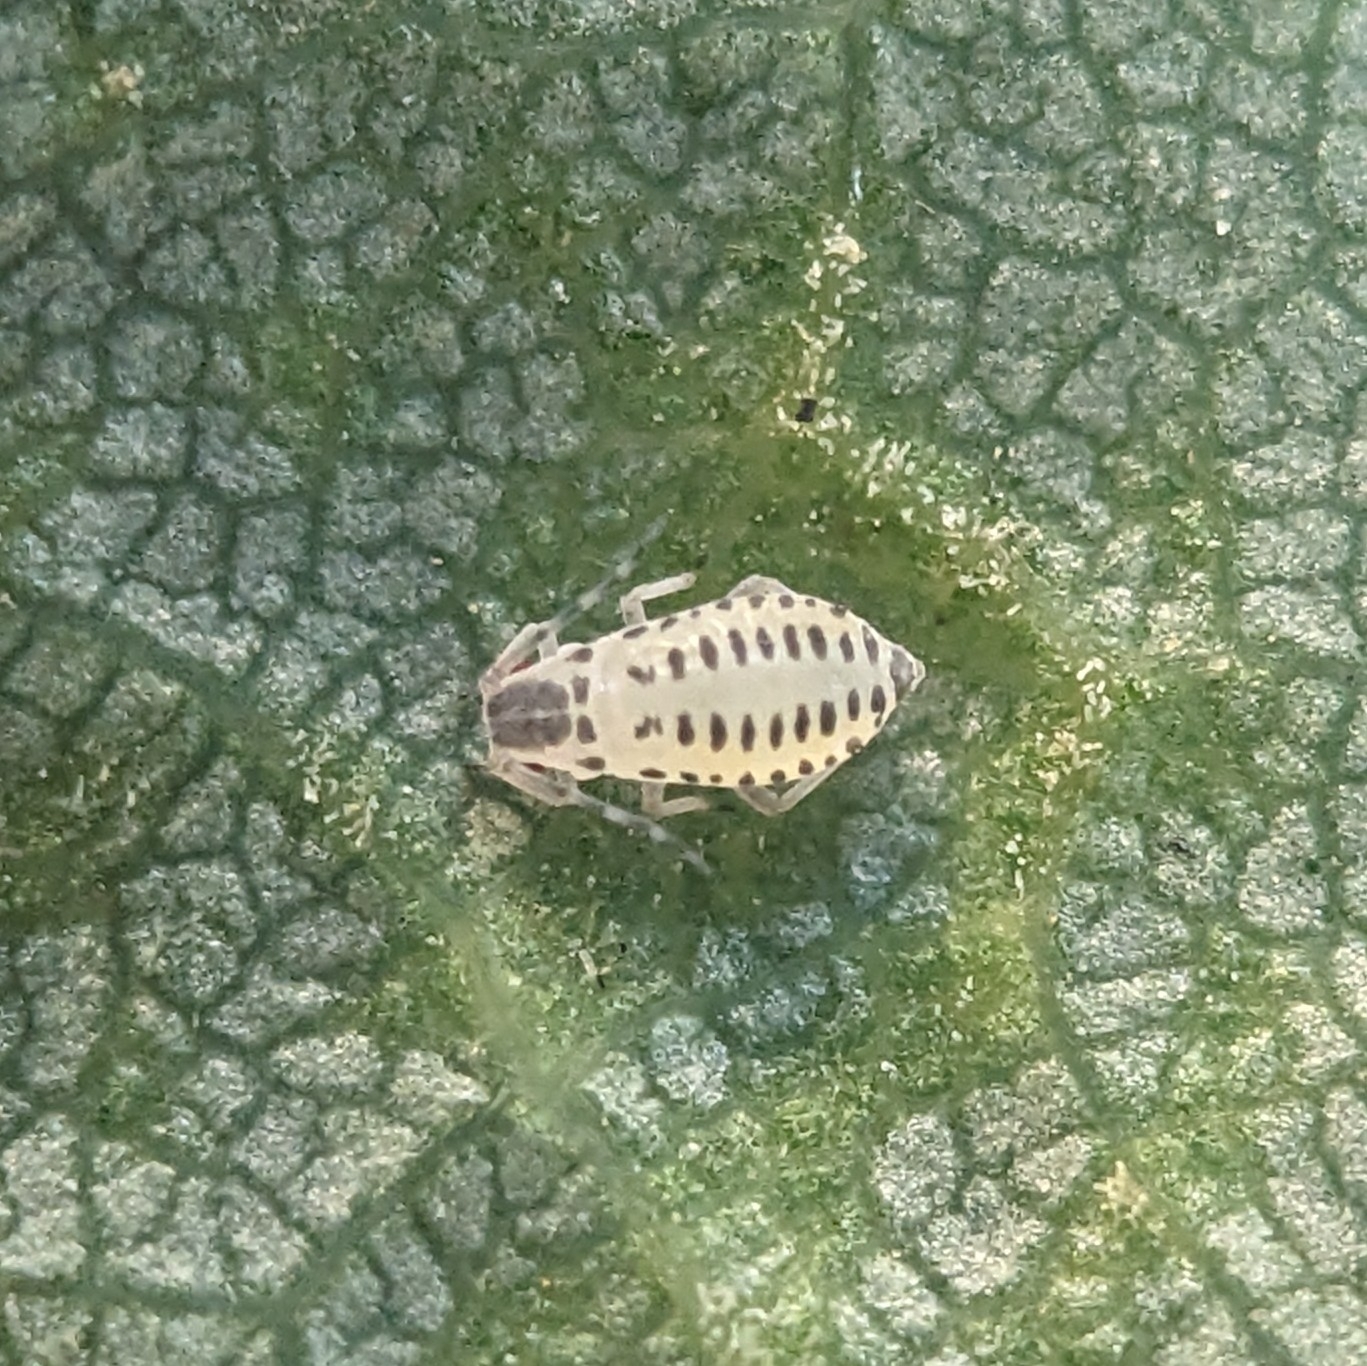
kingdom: Animalia
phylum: Arthropoda
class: Insecta
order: Hemiptera
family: Aphididae
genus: Eucallipterus
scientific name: Eucallipterus tiliae
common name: Aphid
